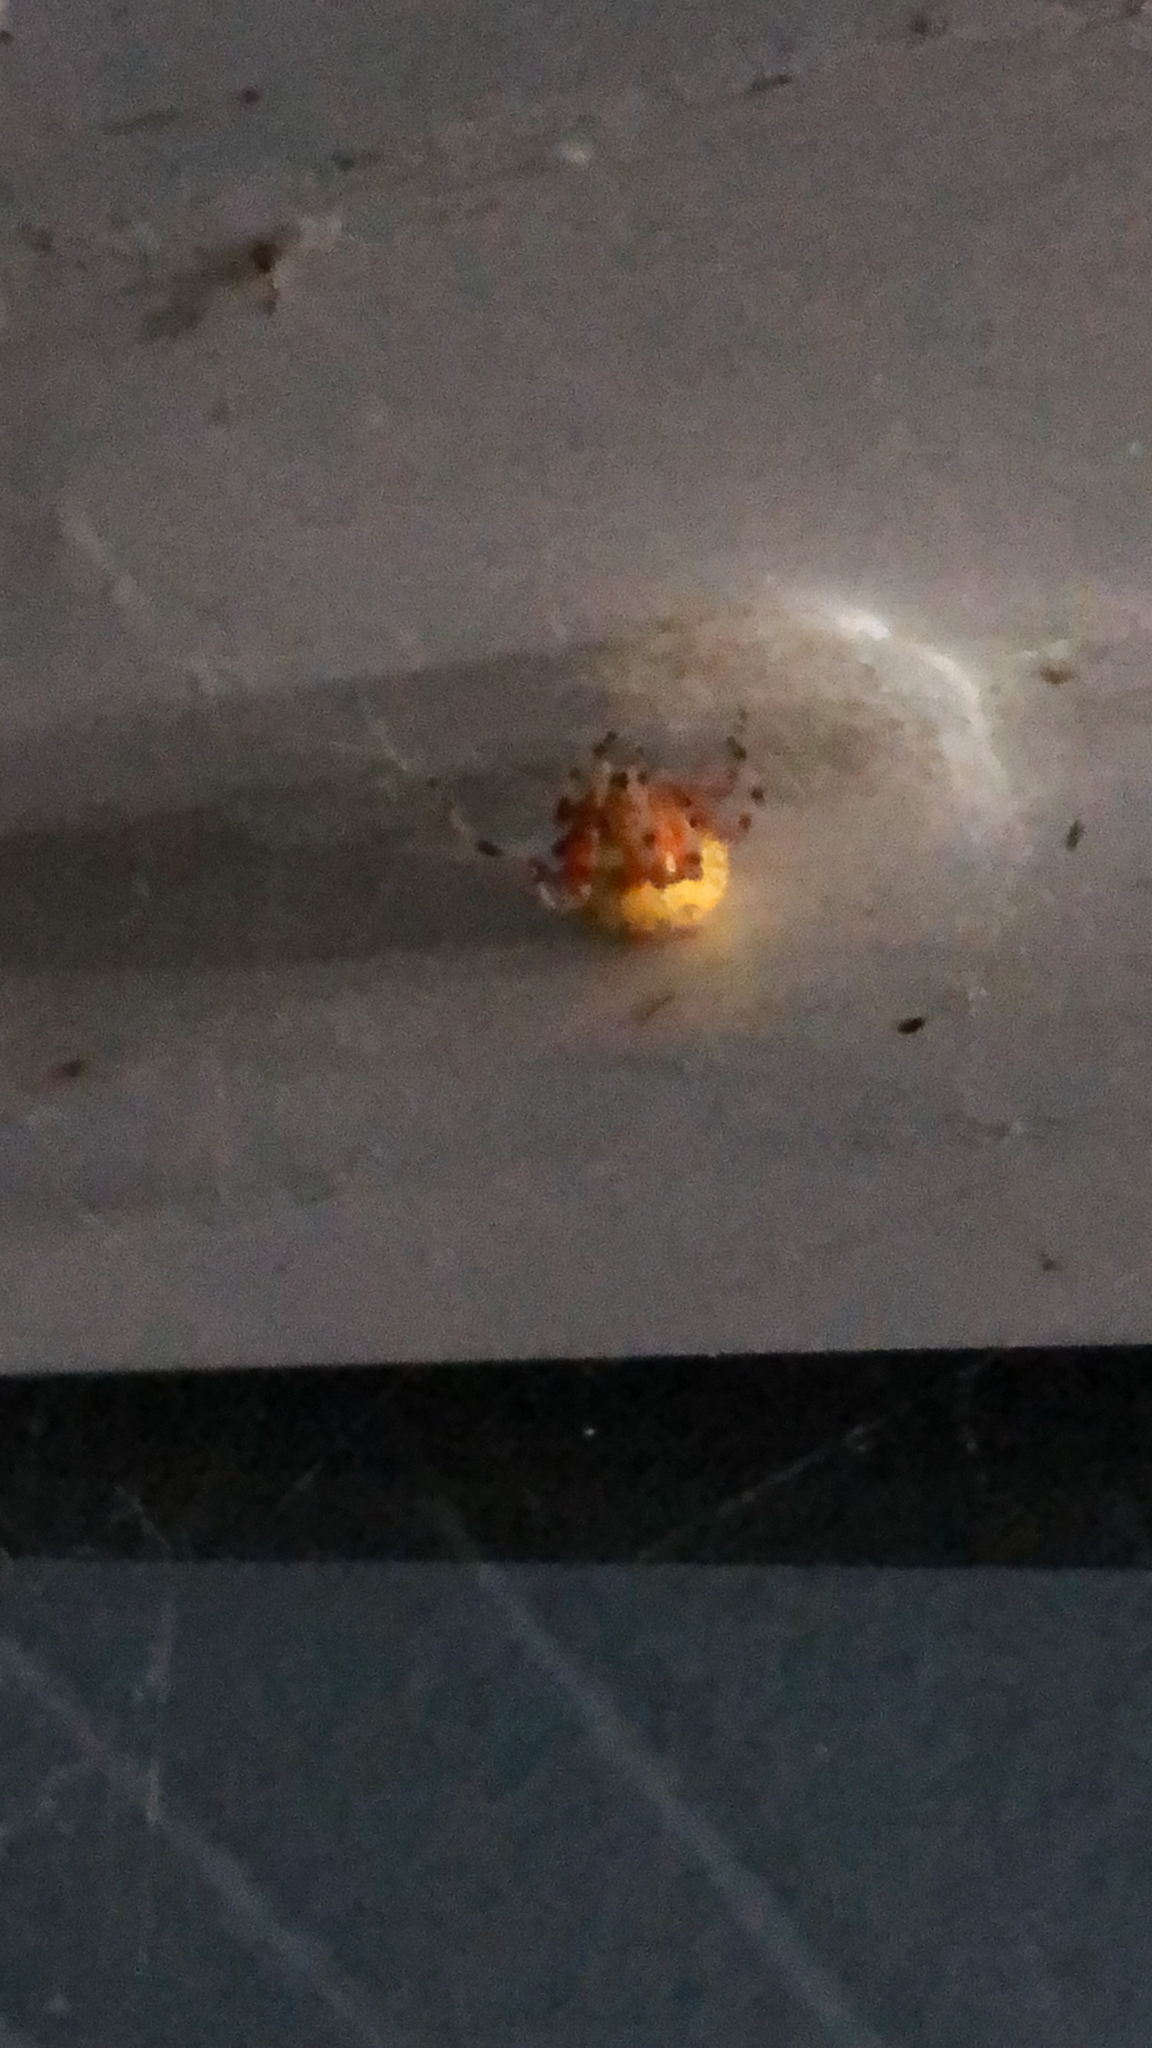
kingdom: Animalia
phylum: Arthropoda
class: Arachnida
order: Araneae
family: Araneidae
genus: Araneus
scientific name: Araneus marmoreus
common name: Marbled orbweaver
